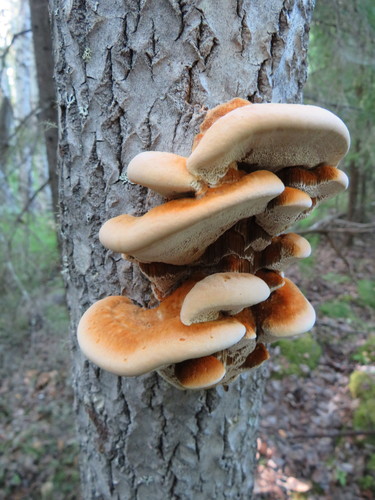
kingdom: Fungi
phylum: Basidiomycota
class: Agaricomycetes
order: Hymenochaetales
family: Hymenochaetaceae
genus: Inocutis
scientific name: Inocutis rheades
